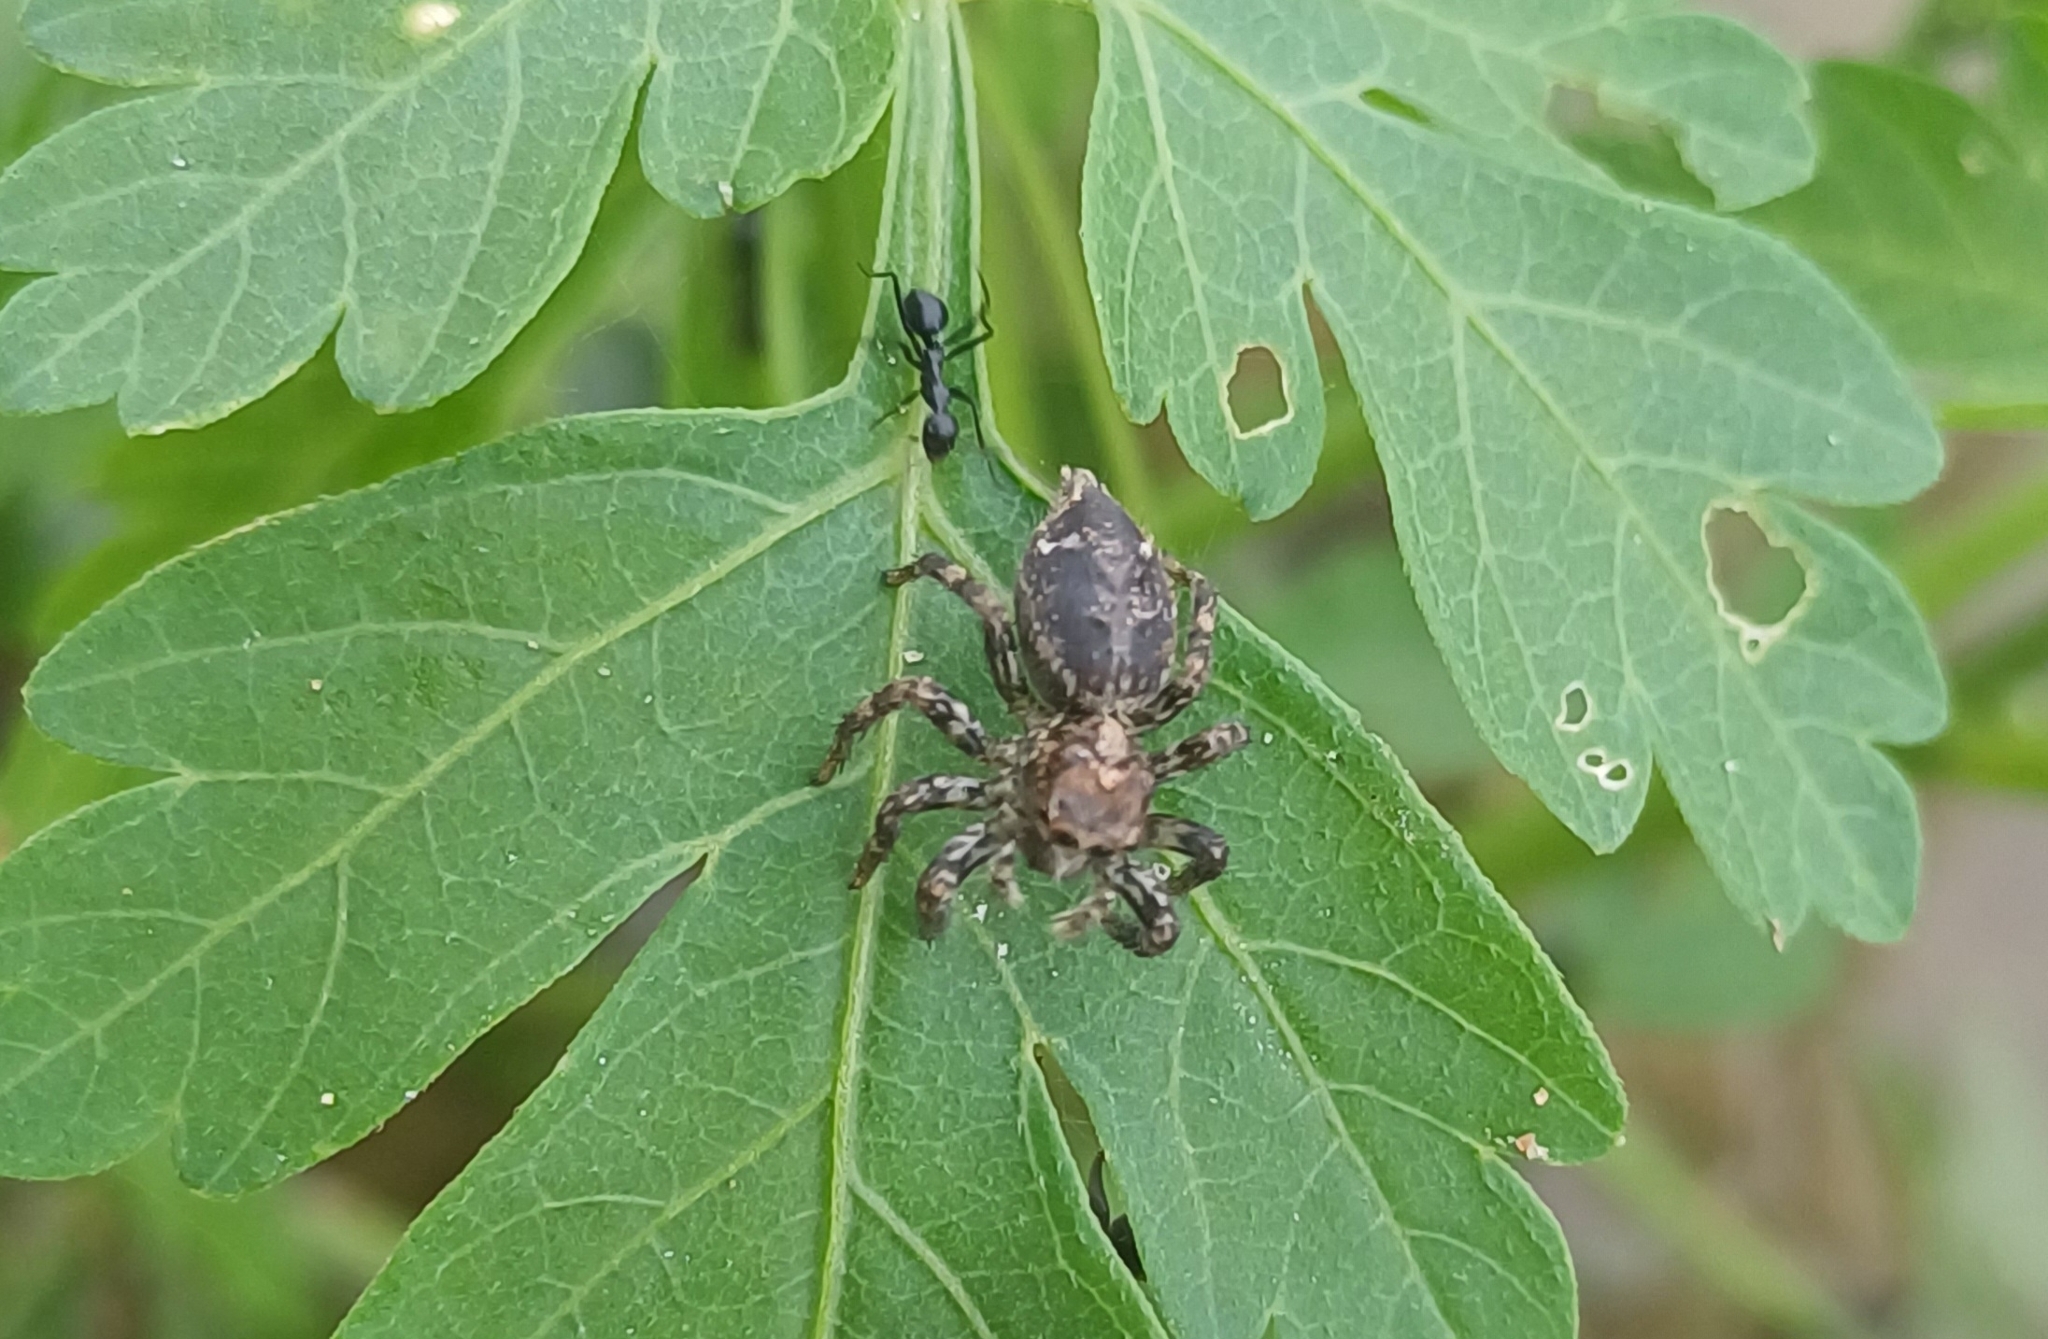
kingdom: Animalia
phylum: Arthropoda
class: Insecta
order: Hymenoptera
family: Formicidae
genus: Camponotus
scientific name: Camponotus compressus
